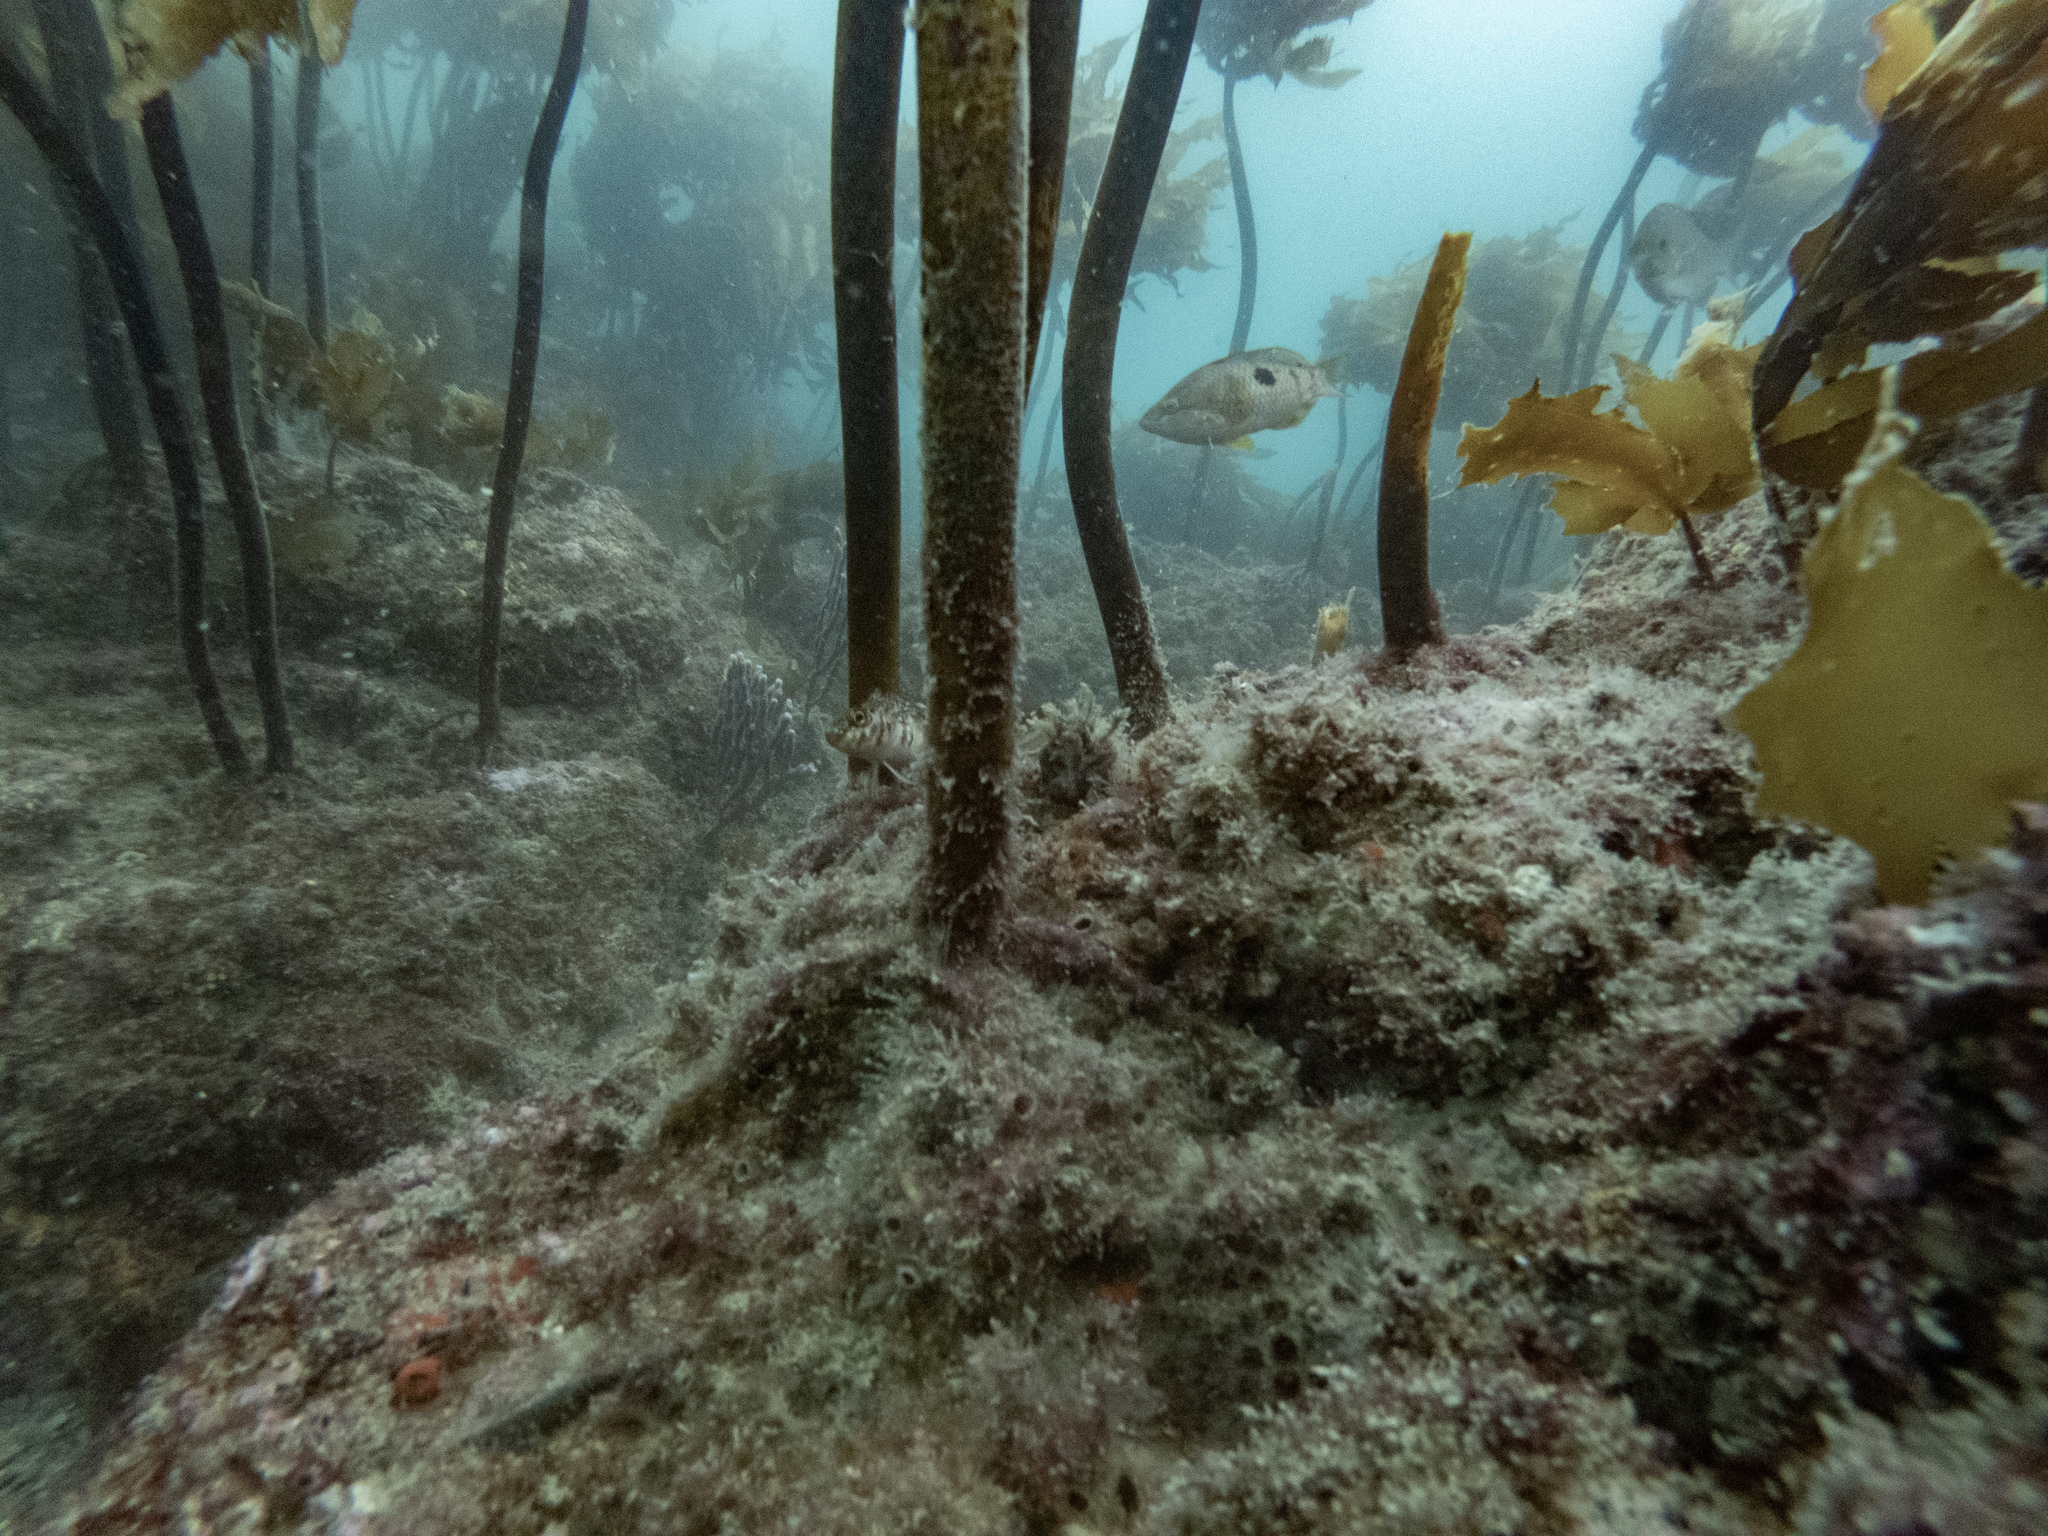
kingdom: Animalia
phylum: Chordata
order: Perciformes
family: Labridae
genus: Notolabrus
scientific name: Notolabrus celidotus
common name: Spotty
